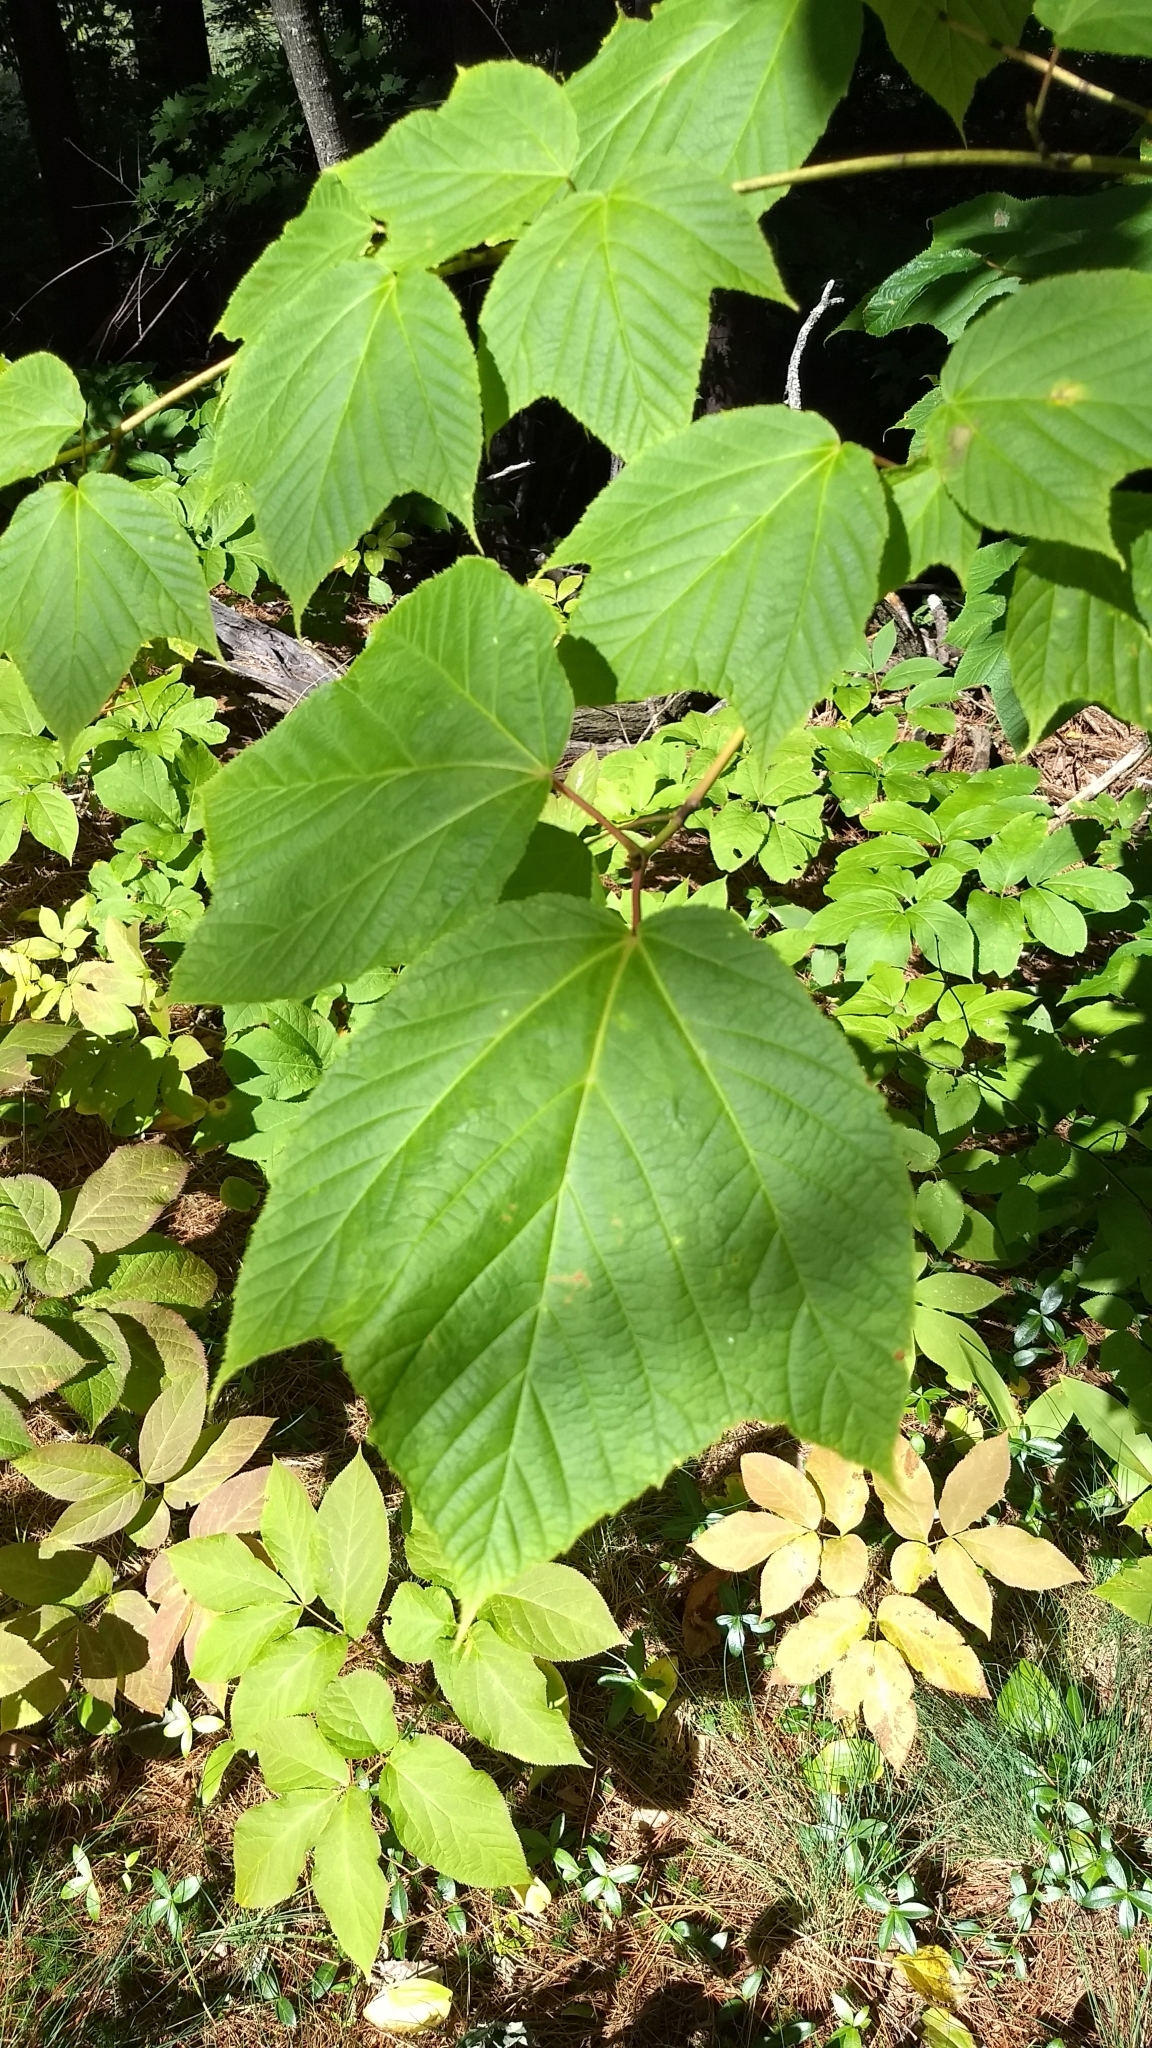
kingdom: Plantae
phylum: Tracheophyta
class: Magnoliopsida
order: Sapindales
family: Sapindaceae
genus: Acer
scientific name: Acer pensylvanicum
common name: Moosewood
